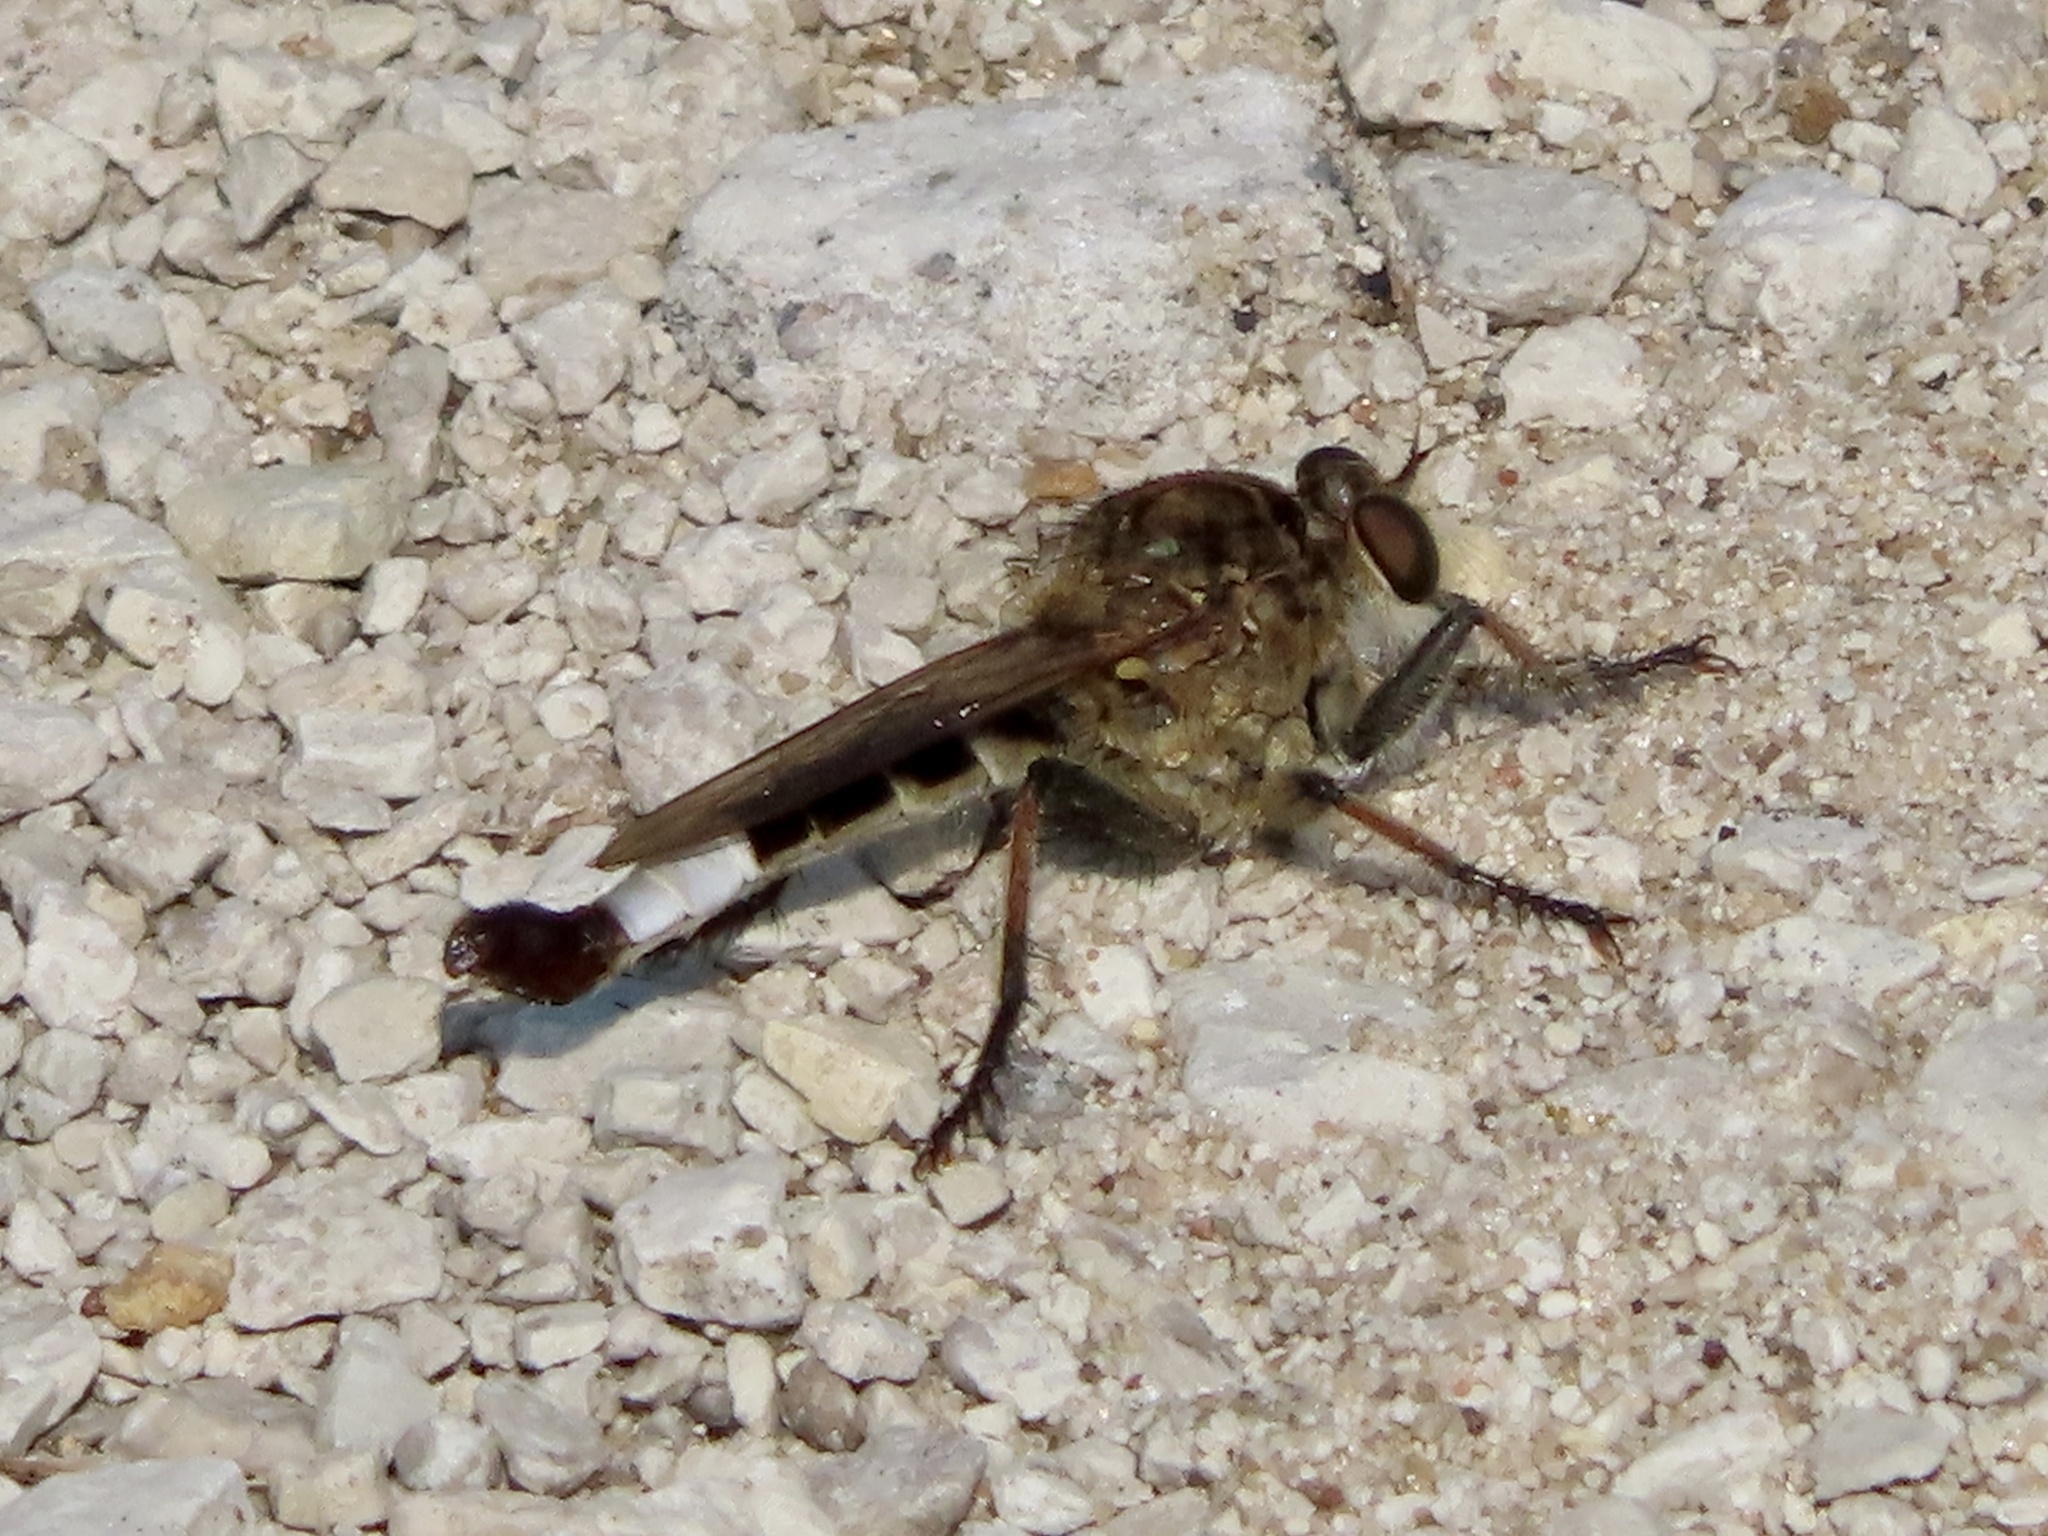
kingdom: Animalia
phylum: Arthropoda
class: Insecta
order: Diptera
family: Asilidae
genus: Efferia
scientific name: Efferia albibarbis
